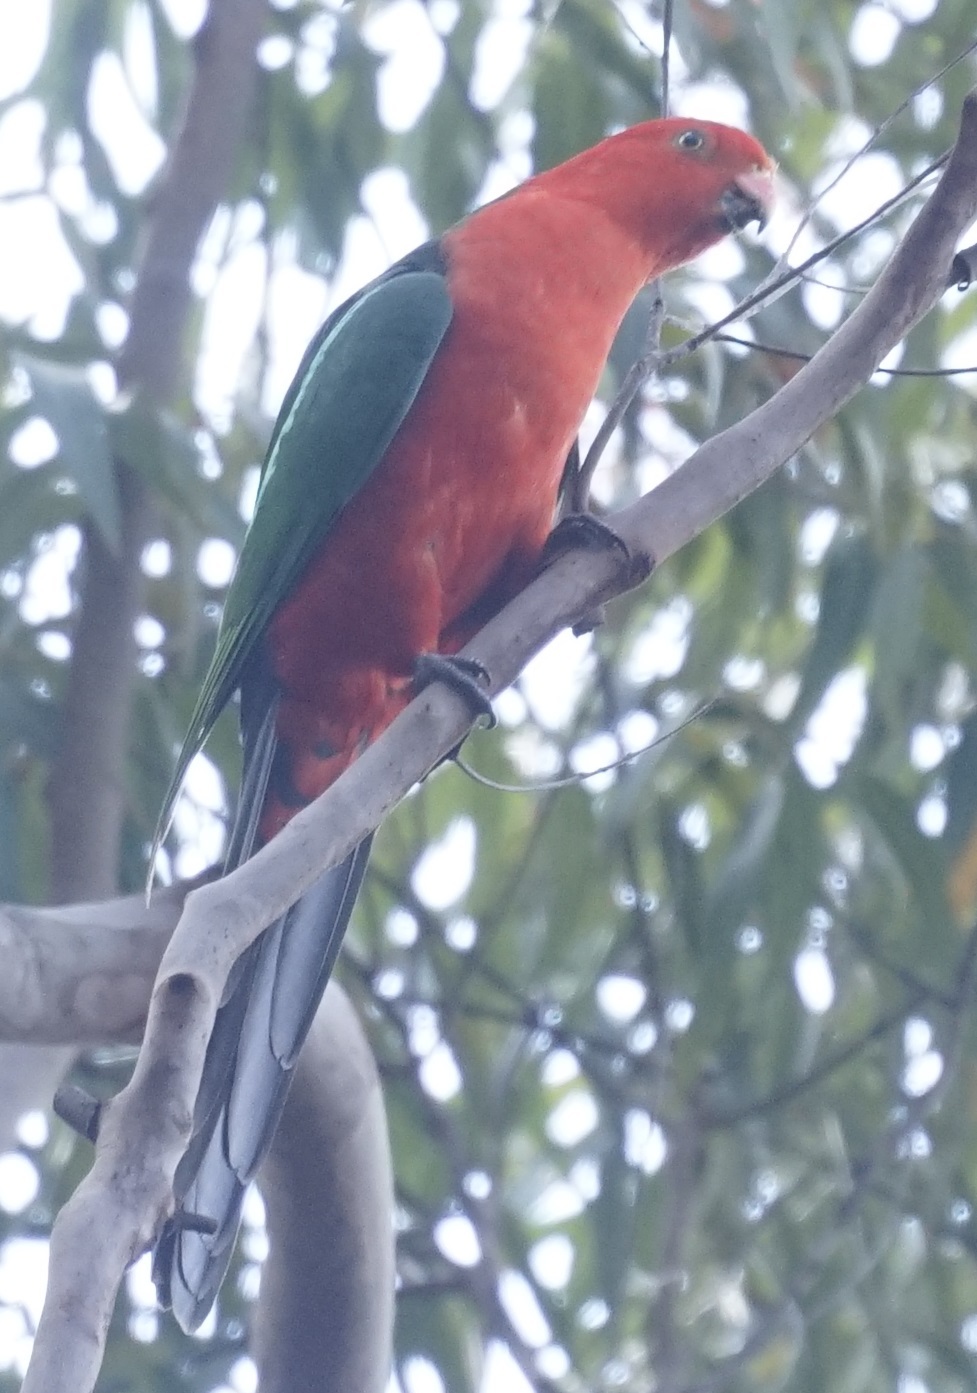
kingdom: Animalia
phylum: Chordata
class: Aves
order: Psittaciformes
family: Psittacidae
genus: Alisterus
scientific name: Alisterus scapularis
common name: Australian king parrot
